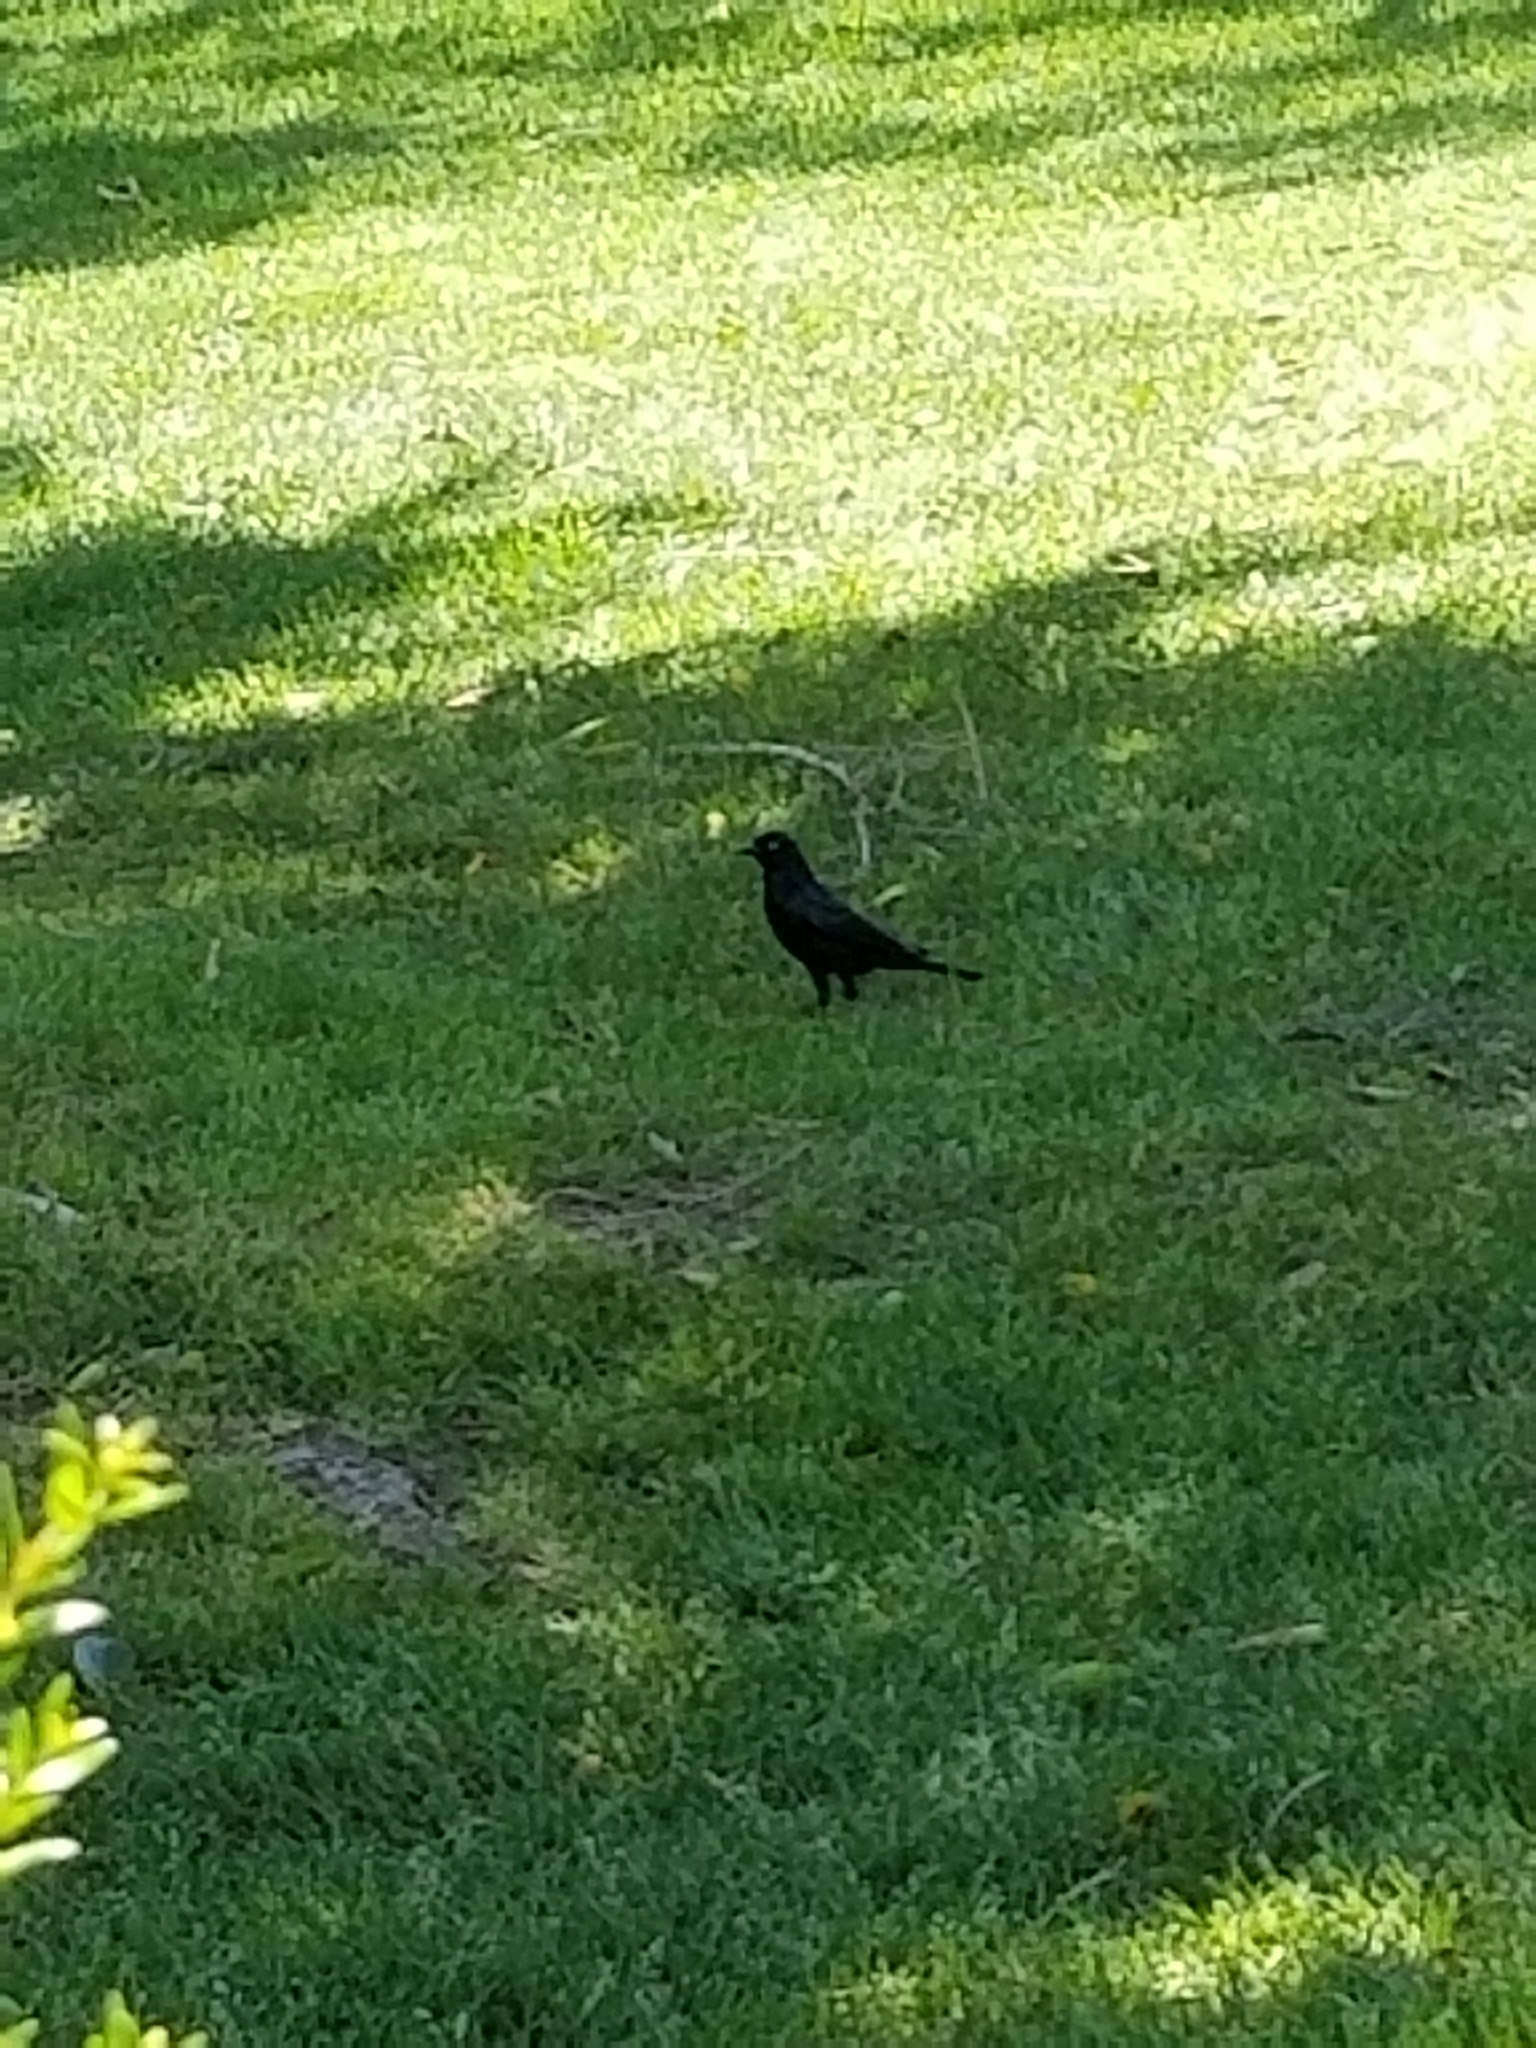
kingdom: Animalia
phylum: Chordata
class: Aves
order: Passeriformes
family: Icteridae
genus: Euphagus
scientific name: Euphagus cyanocephalus
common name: Brewer's blackbird
